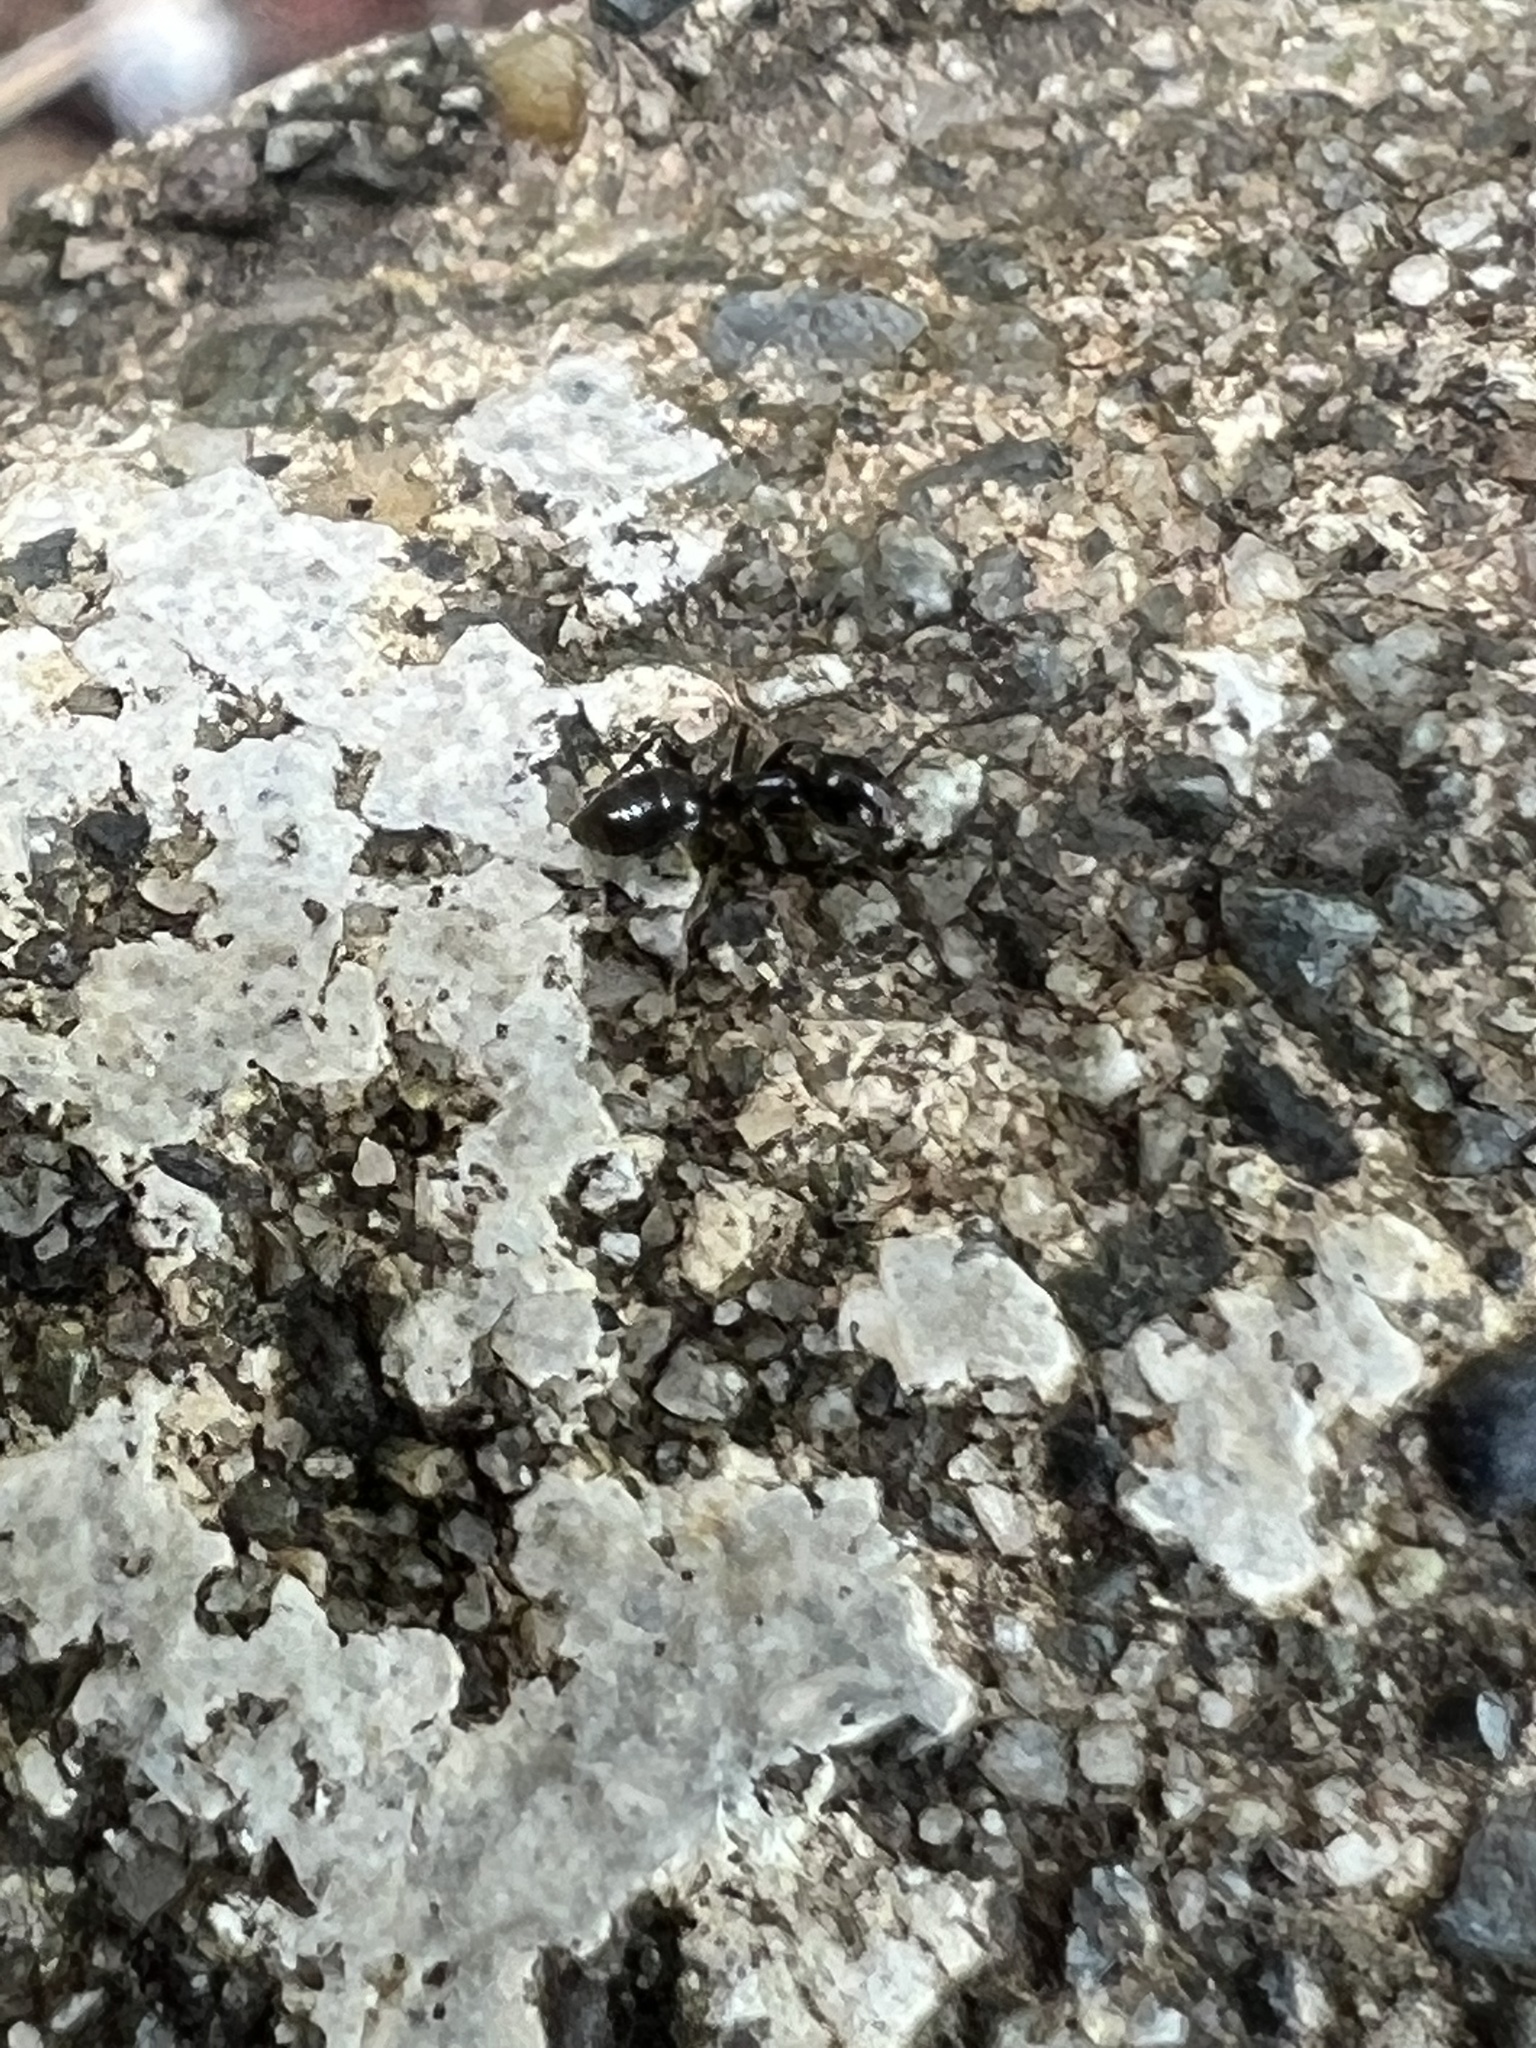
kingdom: Animalia
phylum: Arthropoda
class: Insecta
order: Hymenoptera
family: Formicidae
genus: Tapinoma
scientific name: Tapinoma sessile
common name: Odorous house ant
